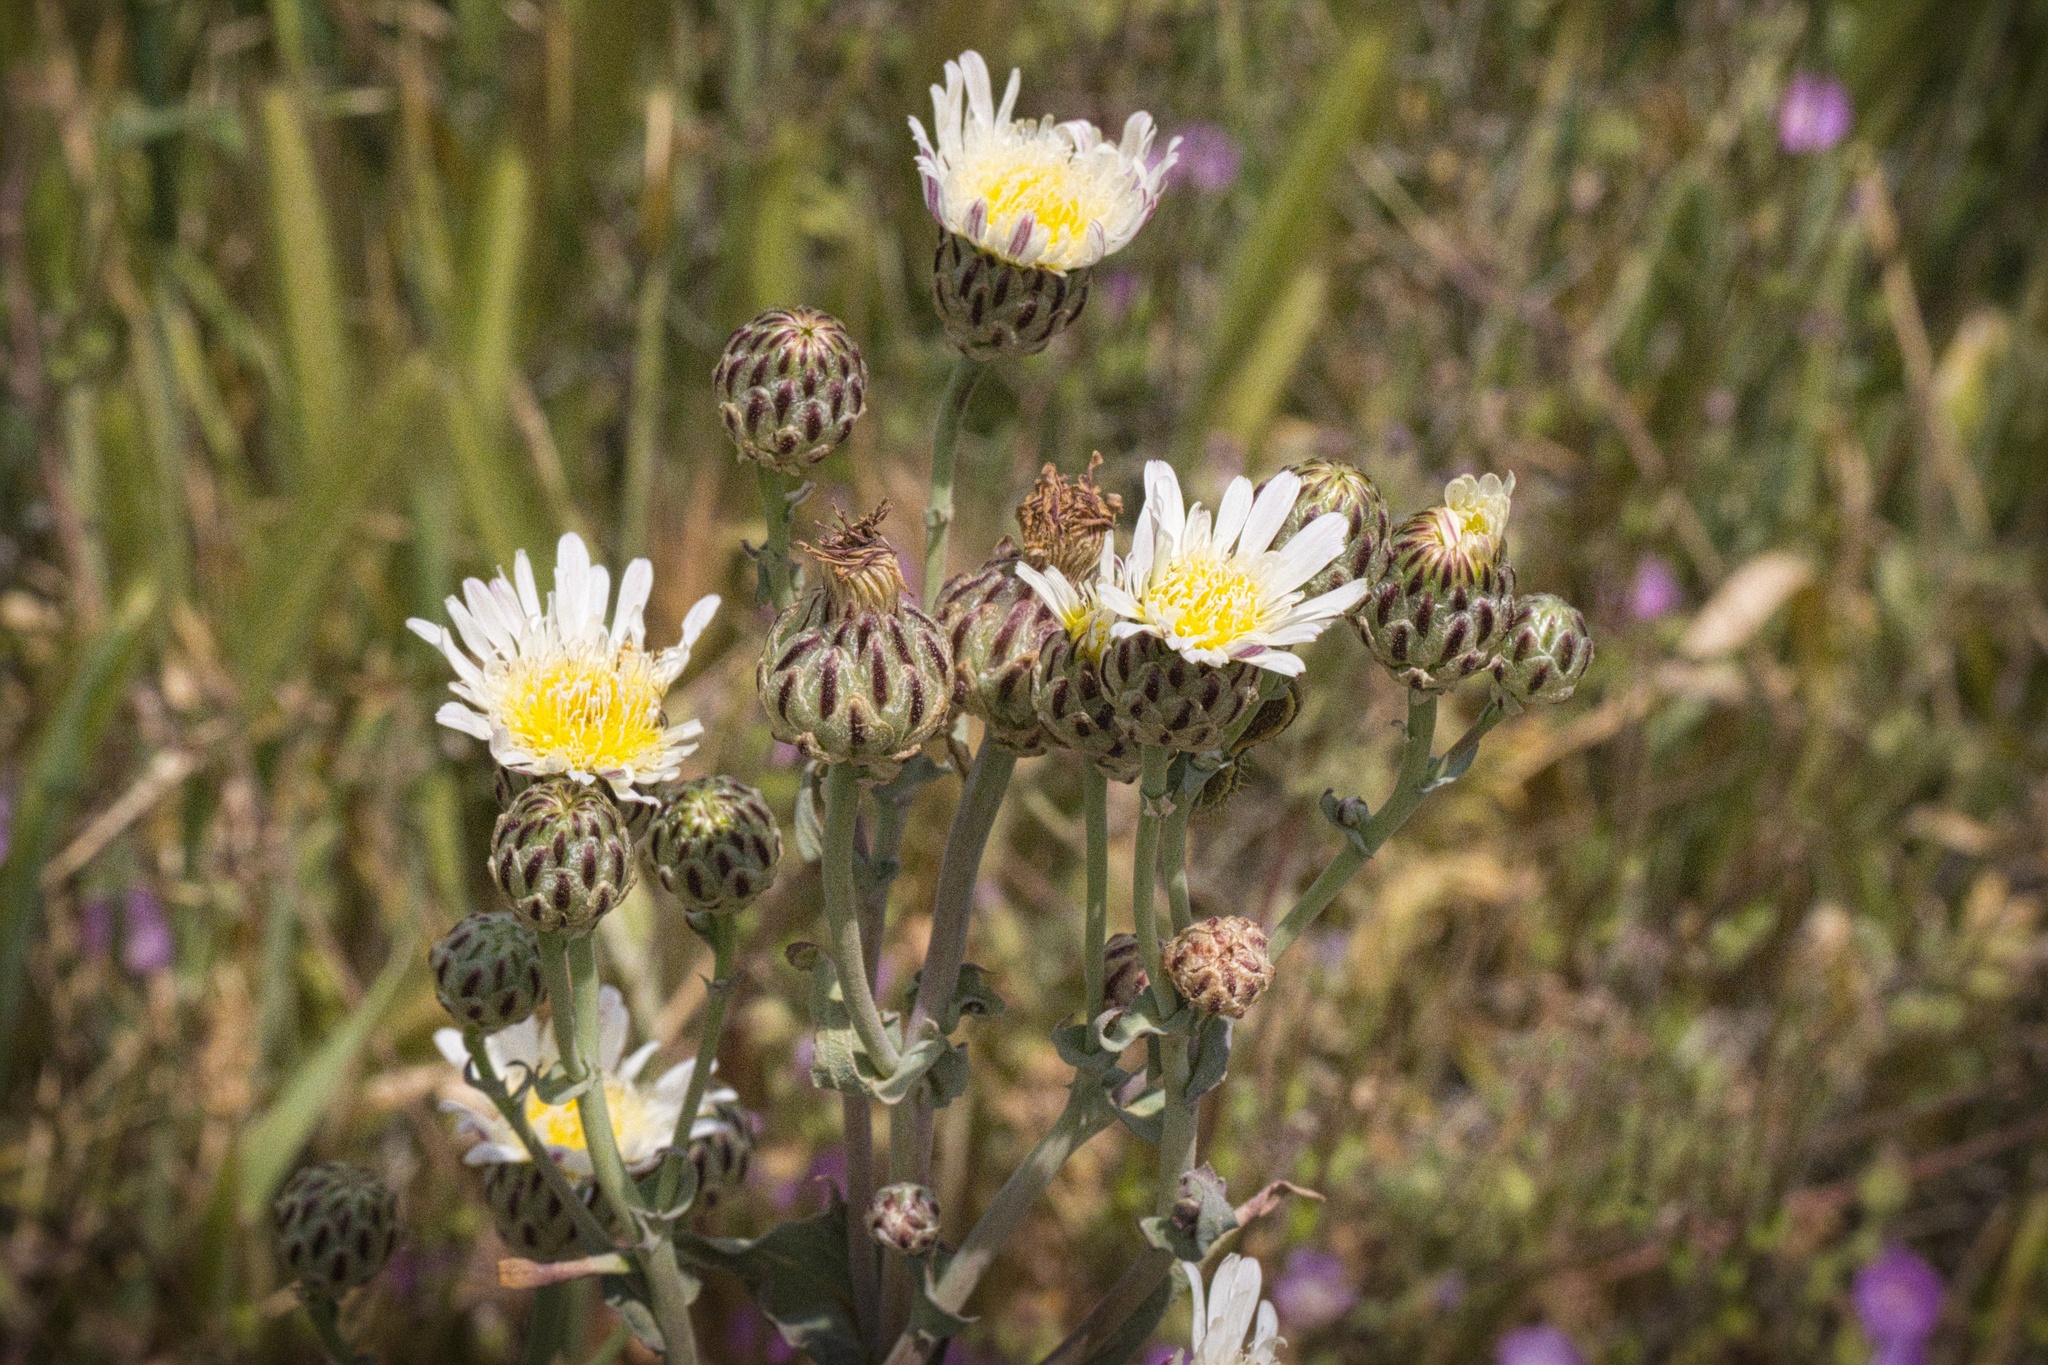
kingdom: Plantae
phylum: Tracheophyta
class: Magnoliopsida
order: Asterales
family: Asteraceae
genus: Malacothrix
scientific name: Malacothrix coulteri
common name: Snake's-head
